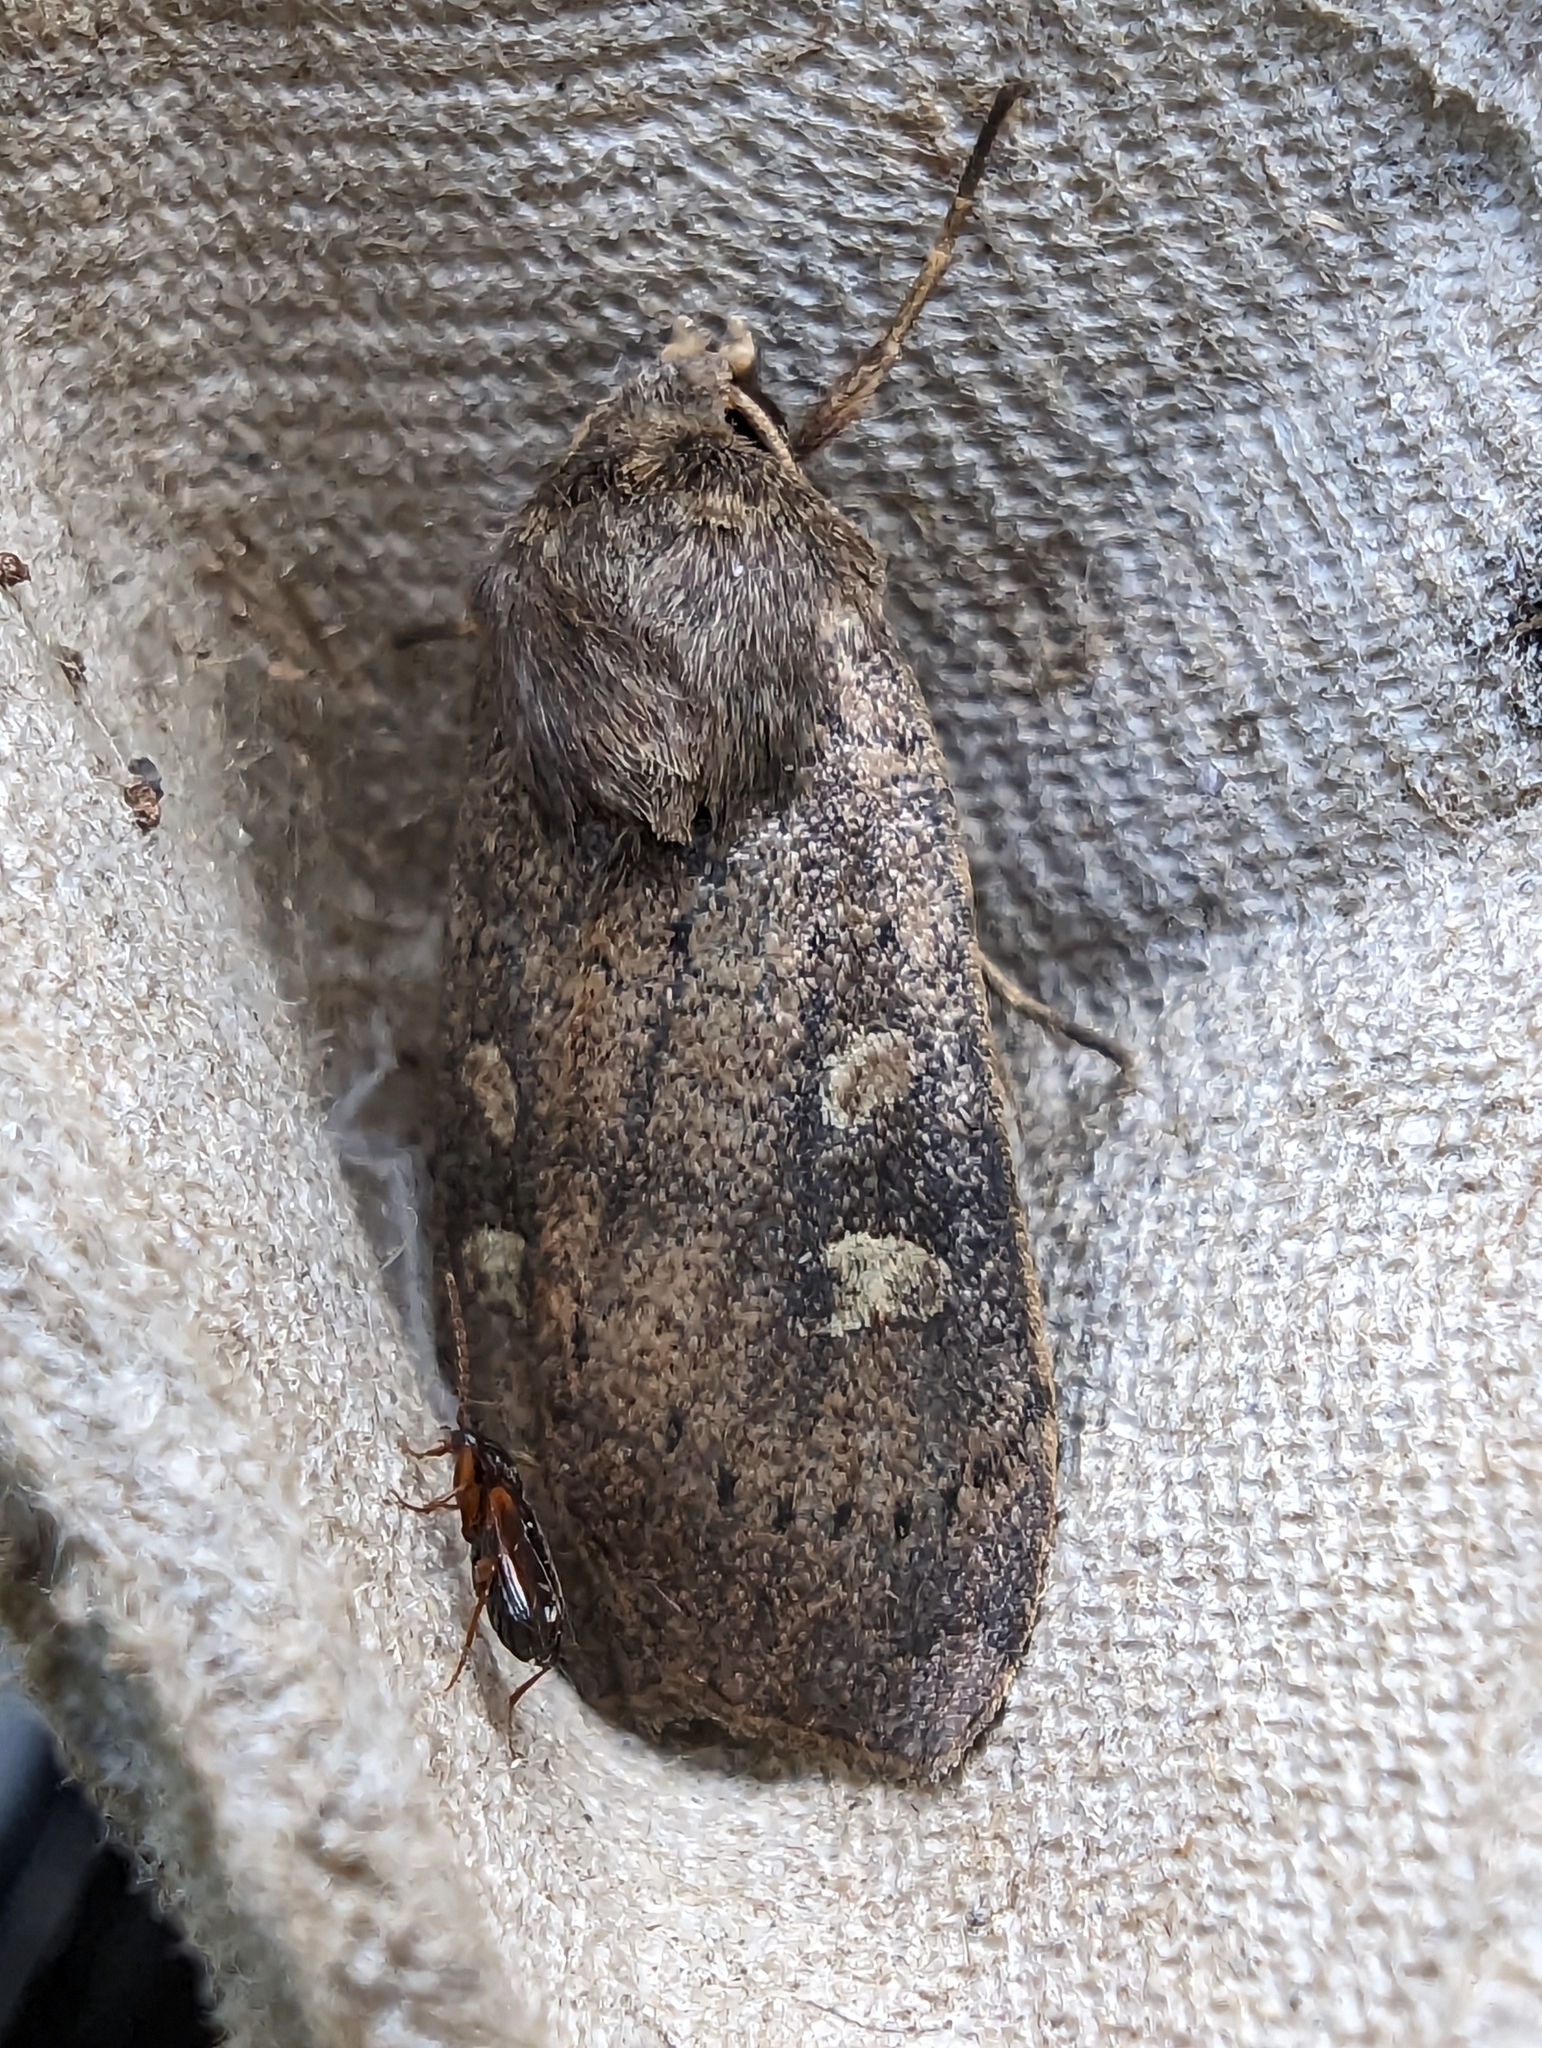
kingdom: Animalia
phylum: Arthropoda
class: Insecta
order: Lepidoptera
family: Noctuidae
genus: Xestia
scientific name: Xestia xanthographa
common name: Square-spot rustic
